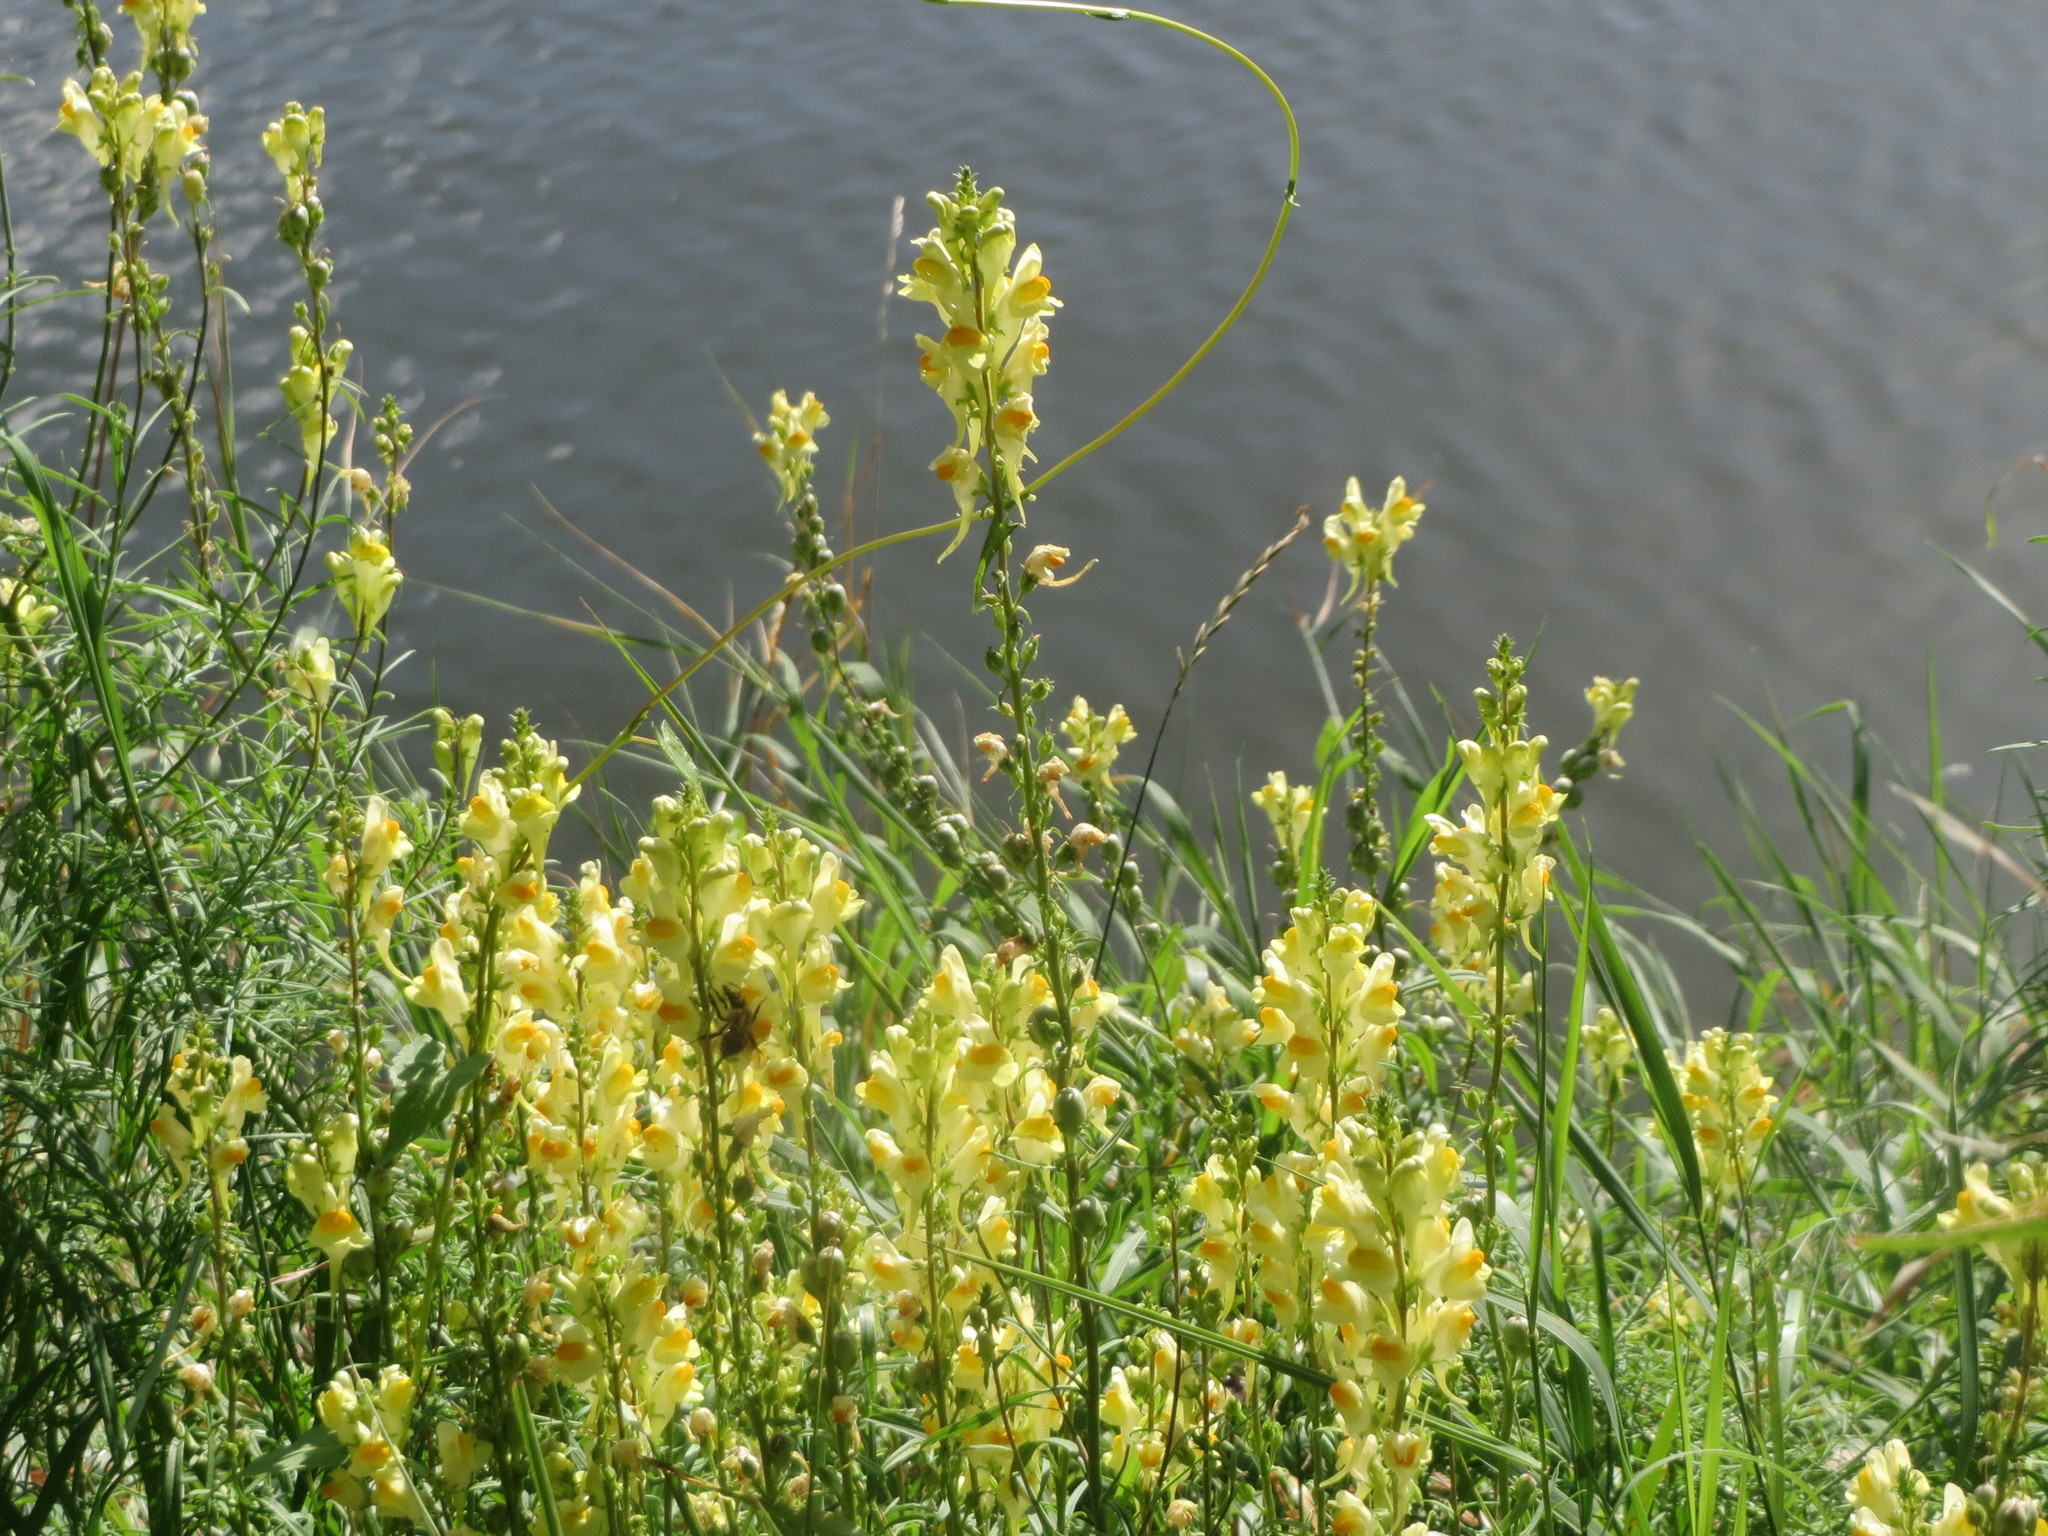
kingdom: Plantae
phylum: Tracheophyta
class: Magnoliopsida
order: Lamiales
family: Plantaginaceae
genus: Linaria
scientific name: Linaria vulgaris
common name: Butter and eggs
